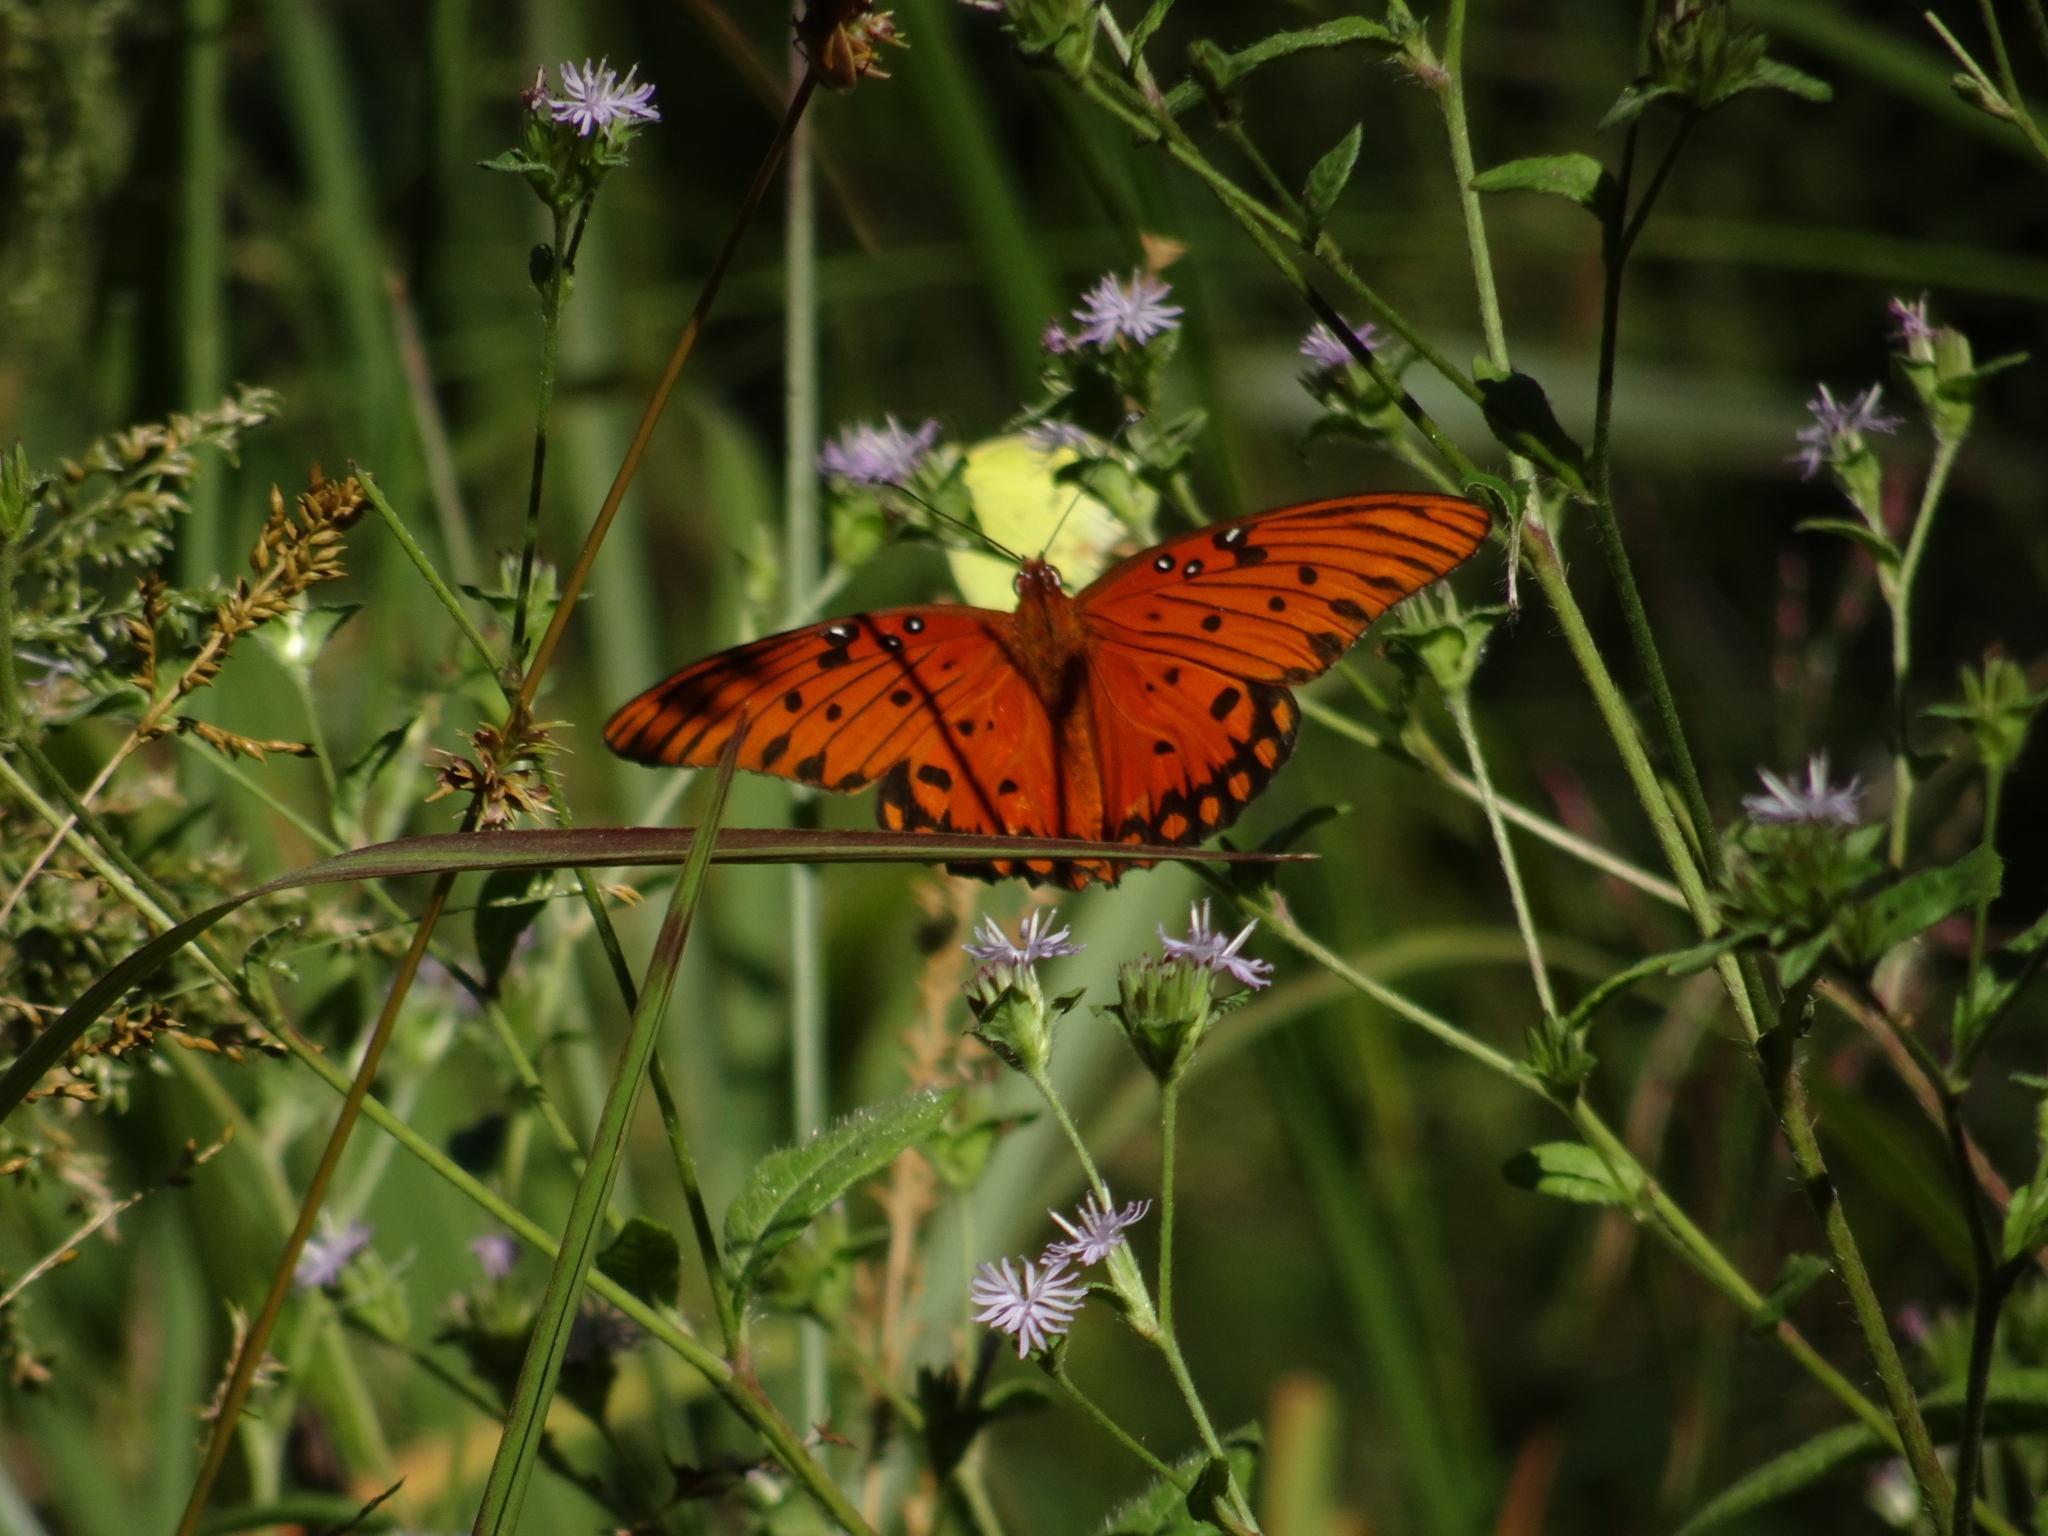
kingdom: Animalia
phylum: Arthropoda
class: Insecta
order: Lepidoptera
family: Nymphalidae
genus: Dione
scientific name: Dione vanillae
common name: Gulf fritillary
